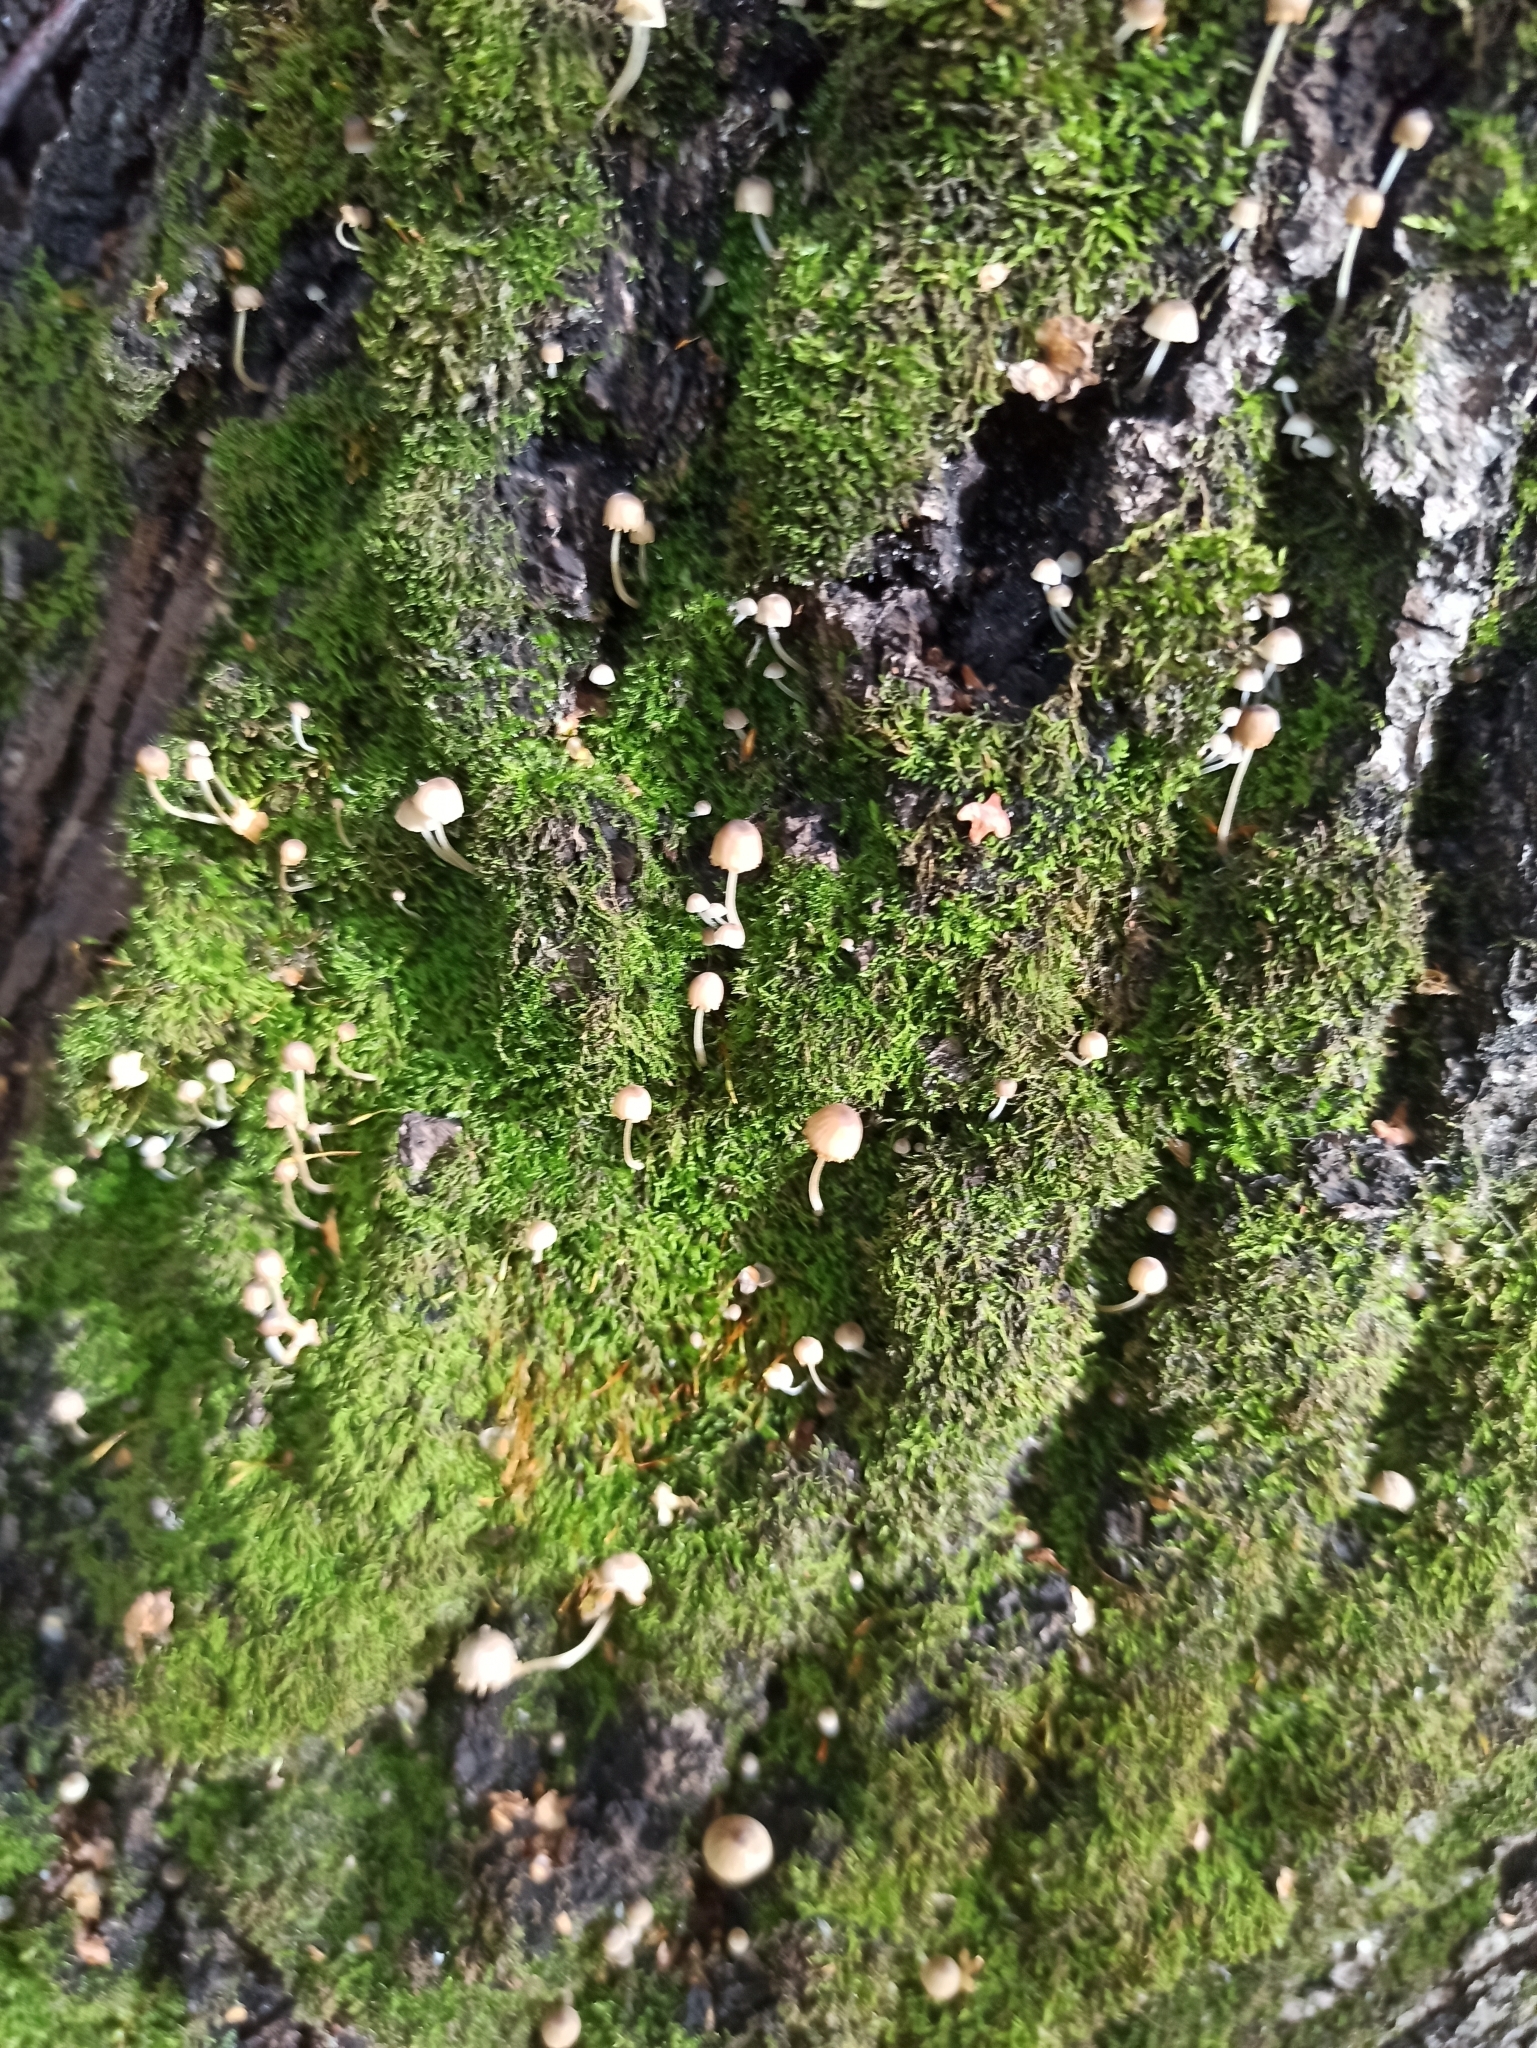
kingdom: Fungi
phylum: Basidiomycota
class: Agaricomycetes
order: Agaricales
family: Mycenaceae
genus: Mycena
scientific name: Mycena epipterygia
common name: Yellowleg bonnet
